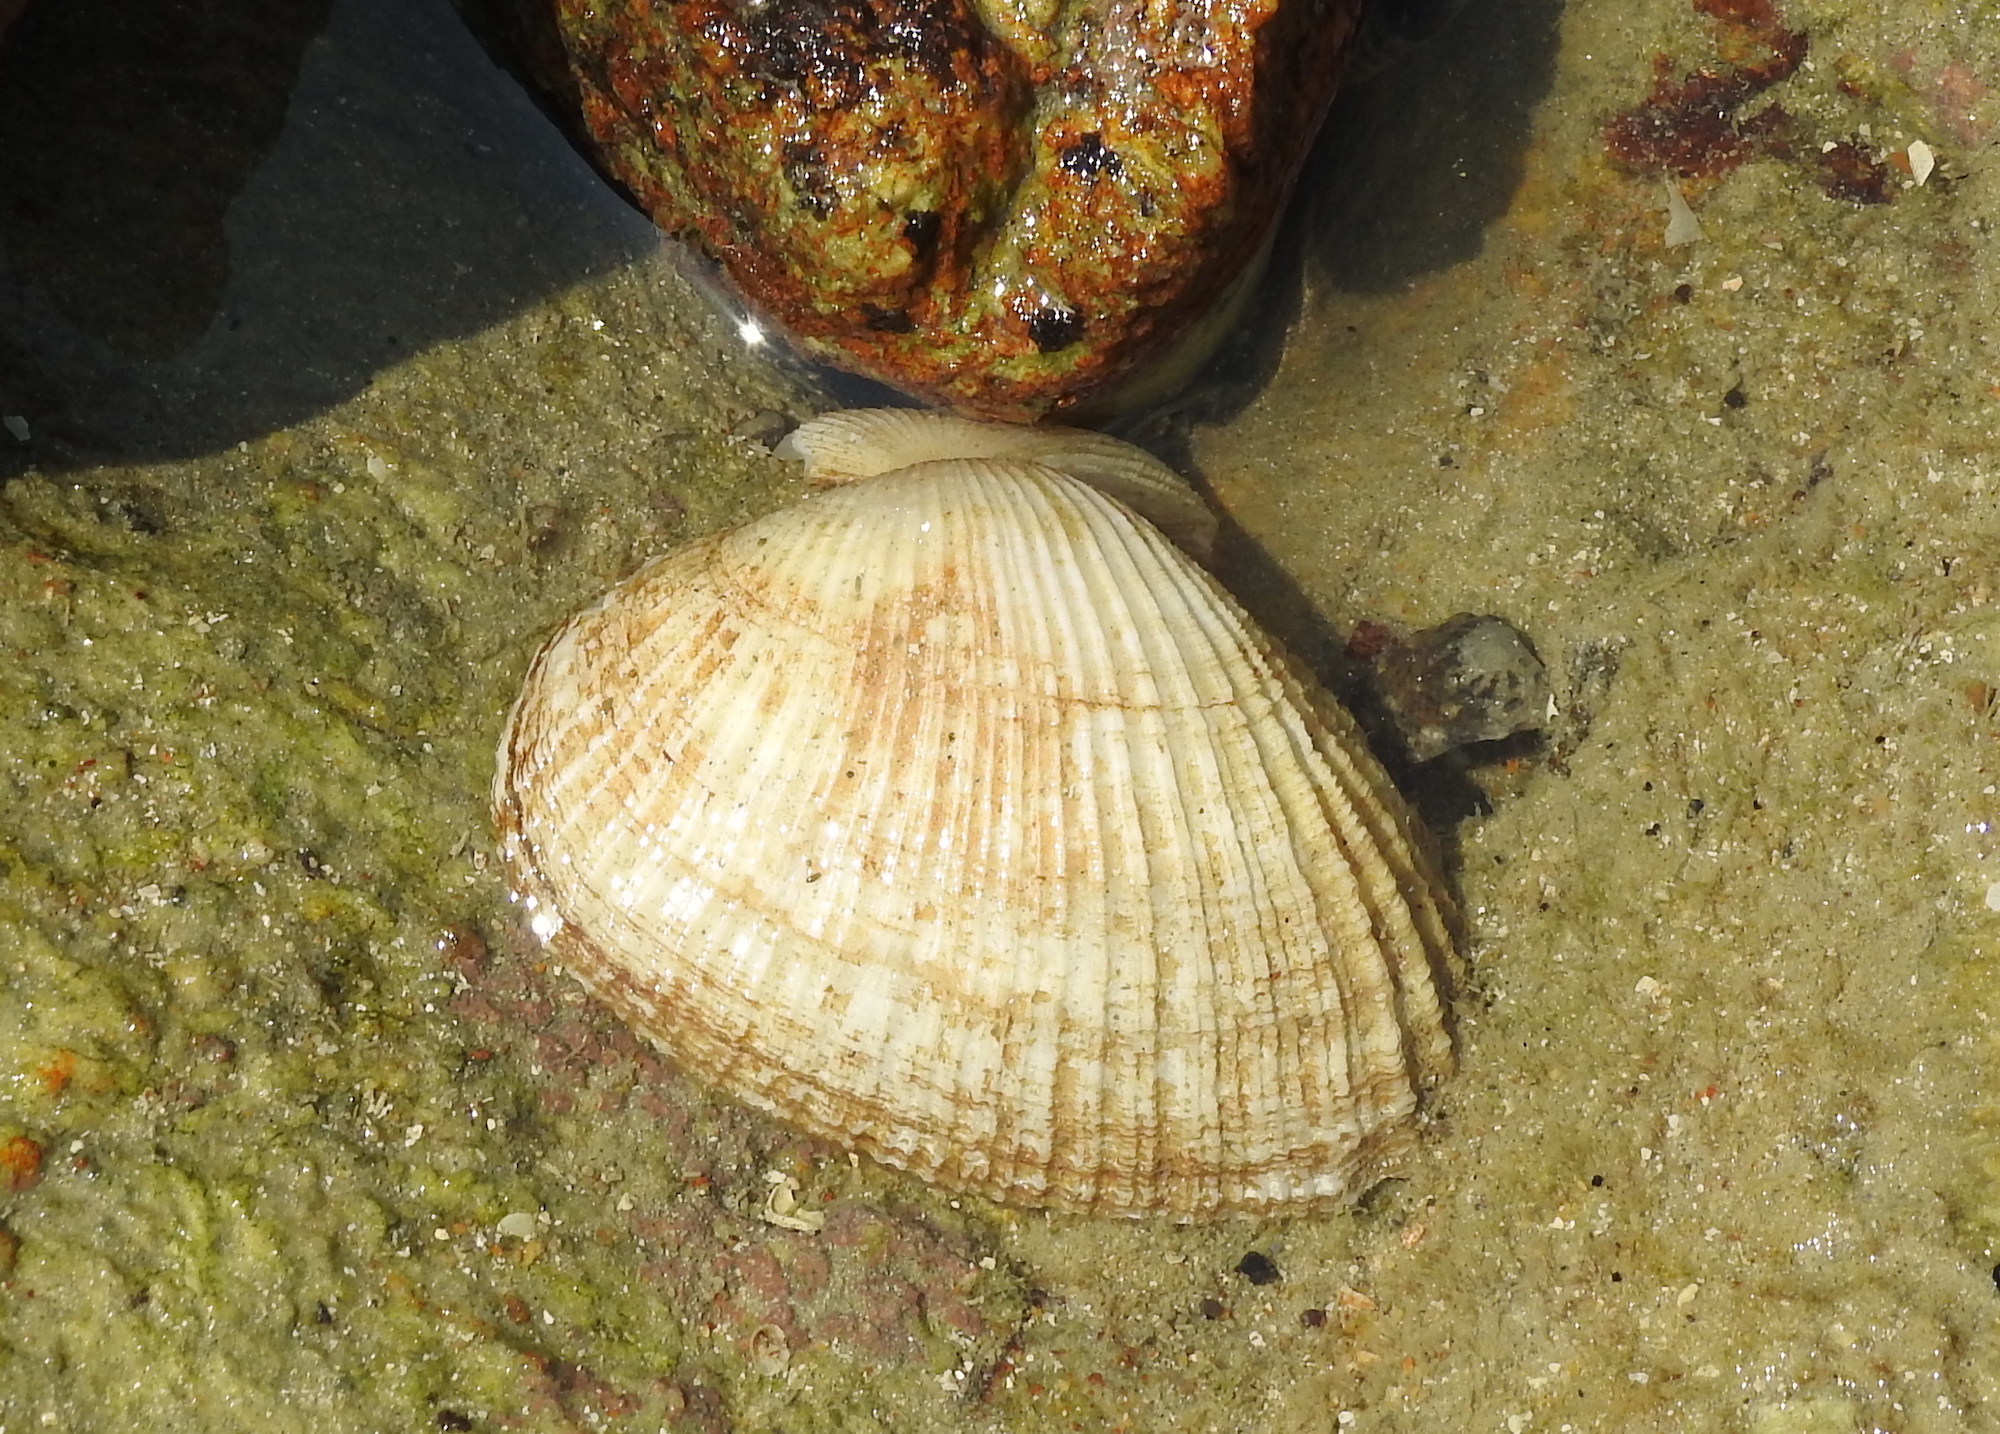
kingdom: Animalia
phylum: Mollusca
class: Bivalvia
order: Cardiida
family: Psammobiidae
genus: Asaphis
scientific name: Asaphis violascens
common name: Pacific asaphis
